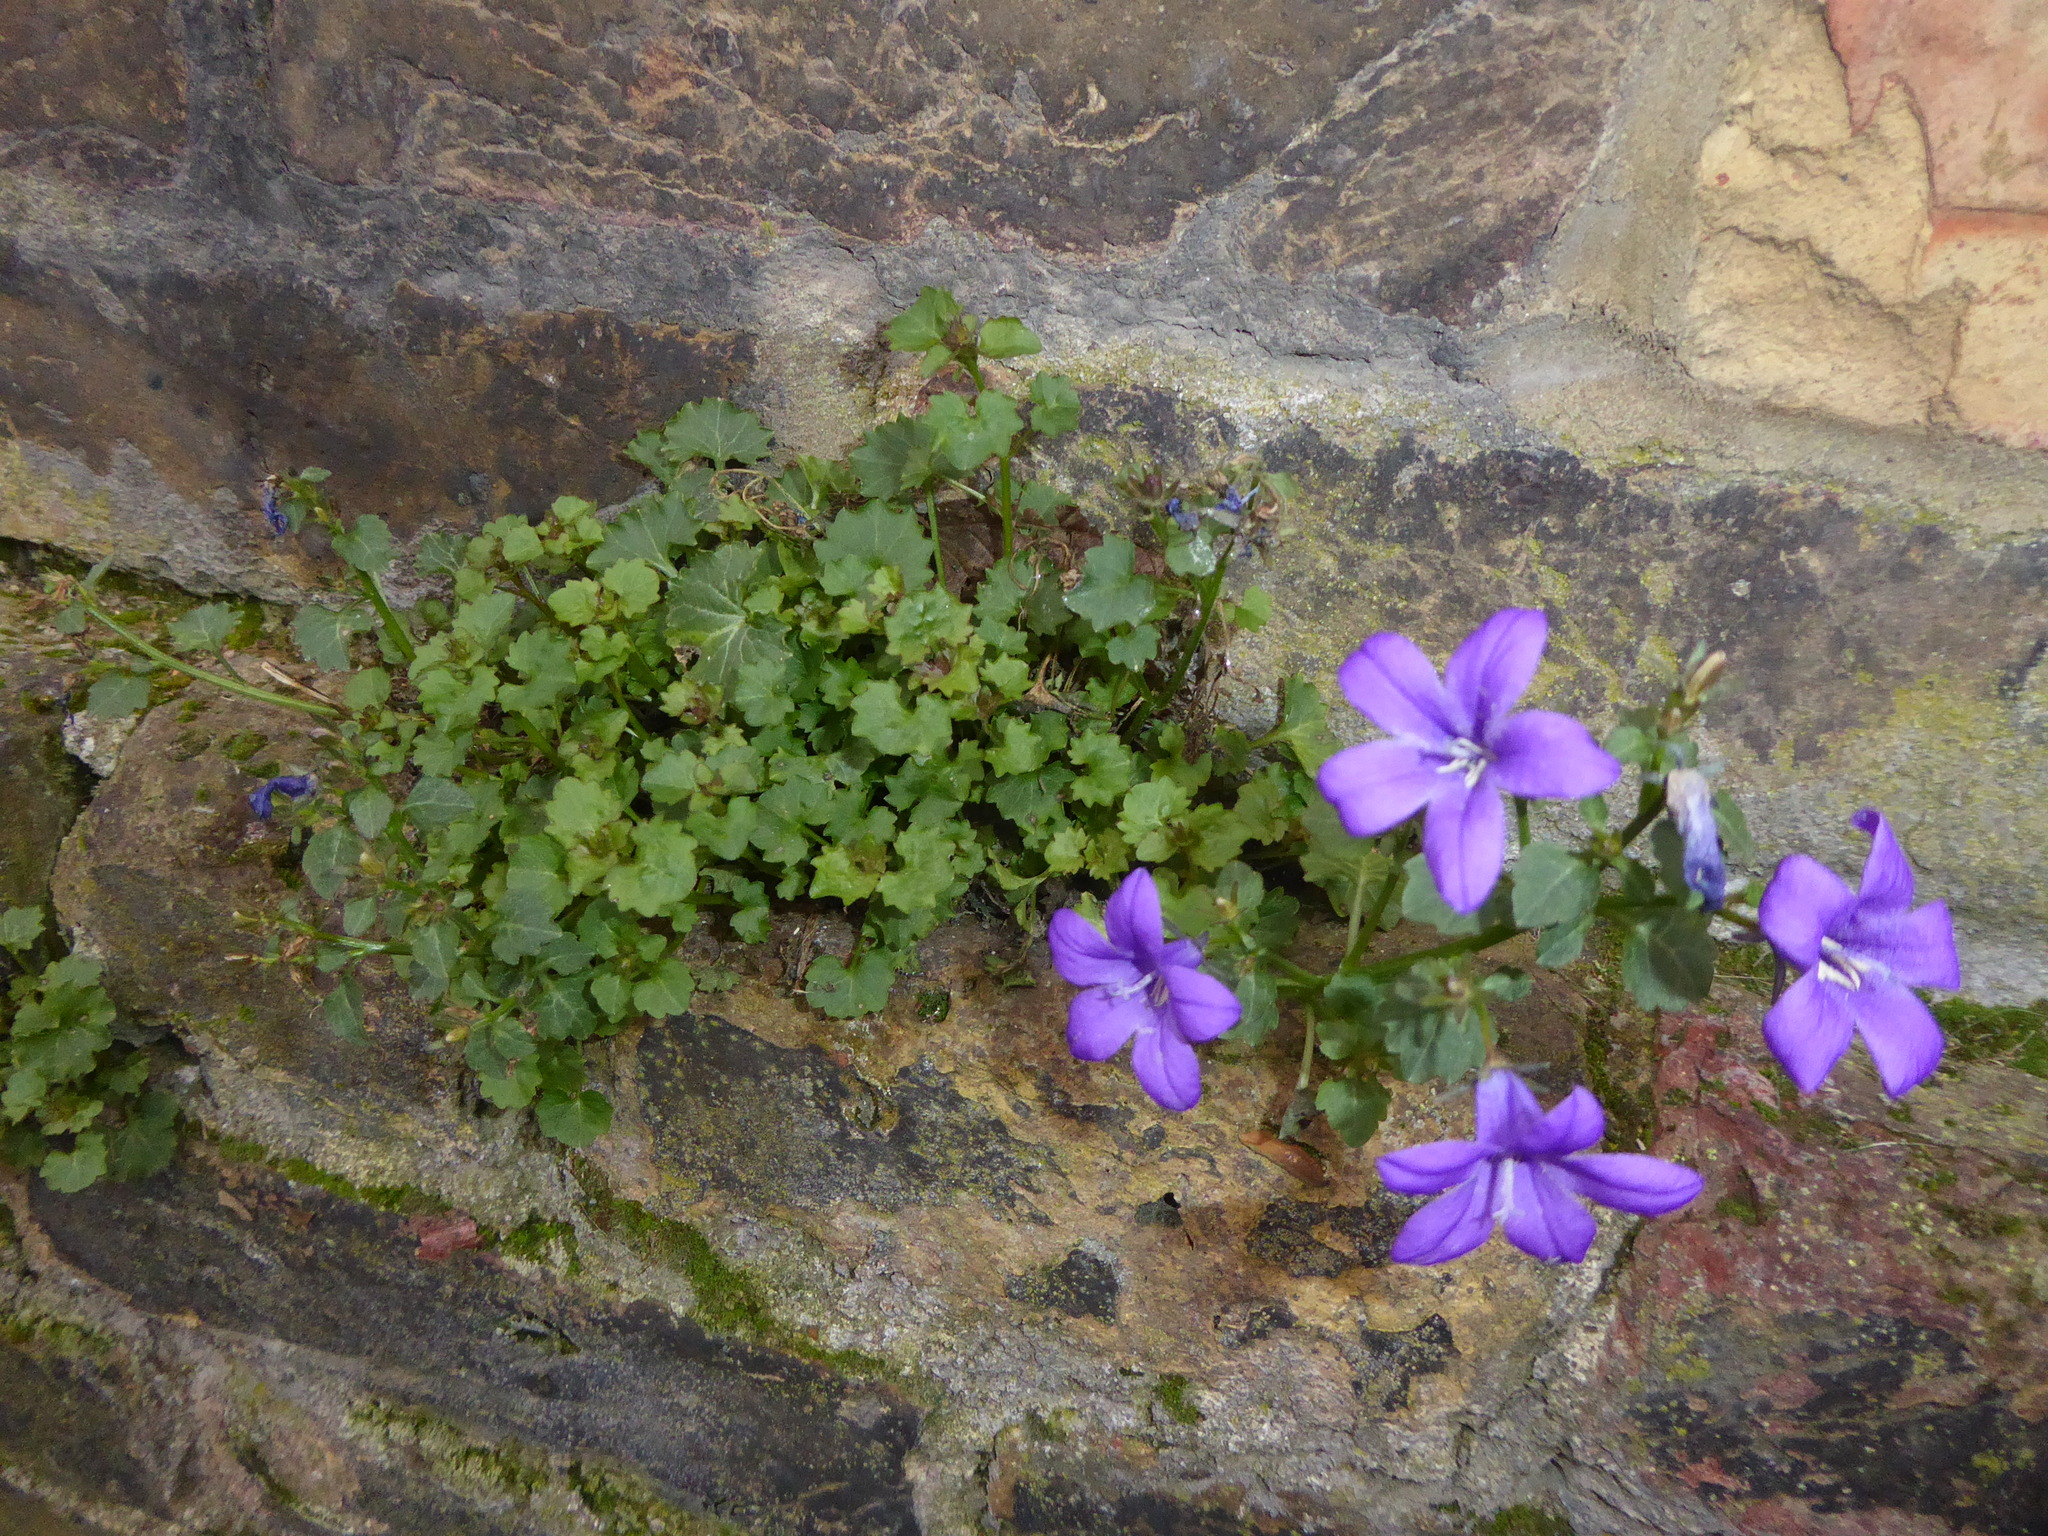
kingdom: Plantae
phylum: Tracheophyta
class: Magnoliopsida
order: Asterales
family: Campanulaceae
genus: Campanula
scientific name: Campanula portenschlagiana
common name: Adria bellflower
